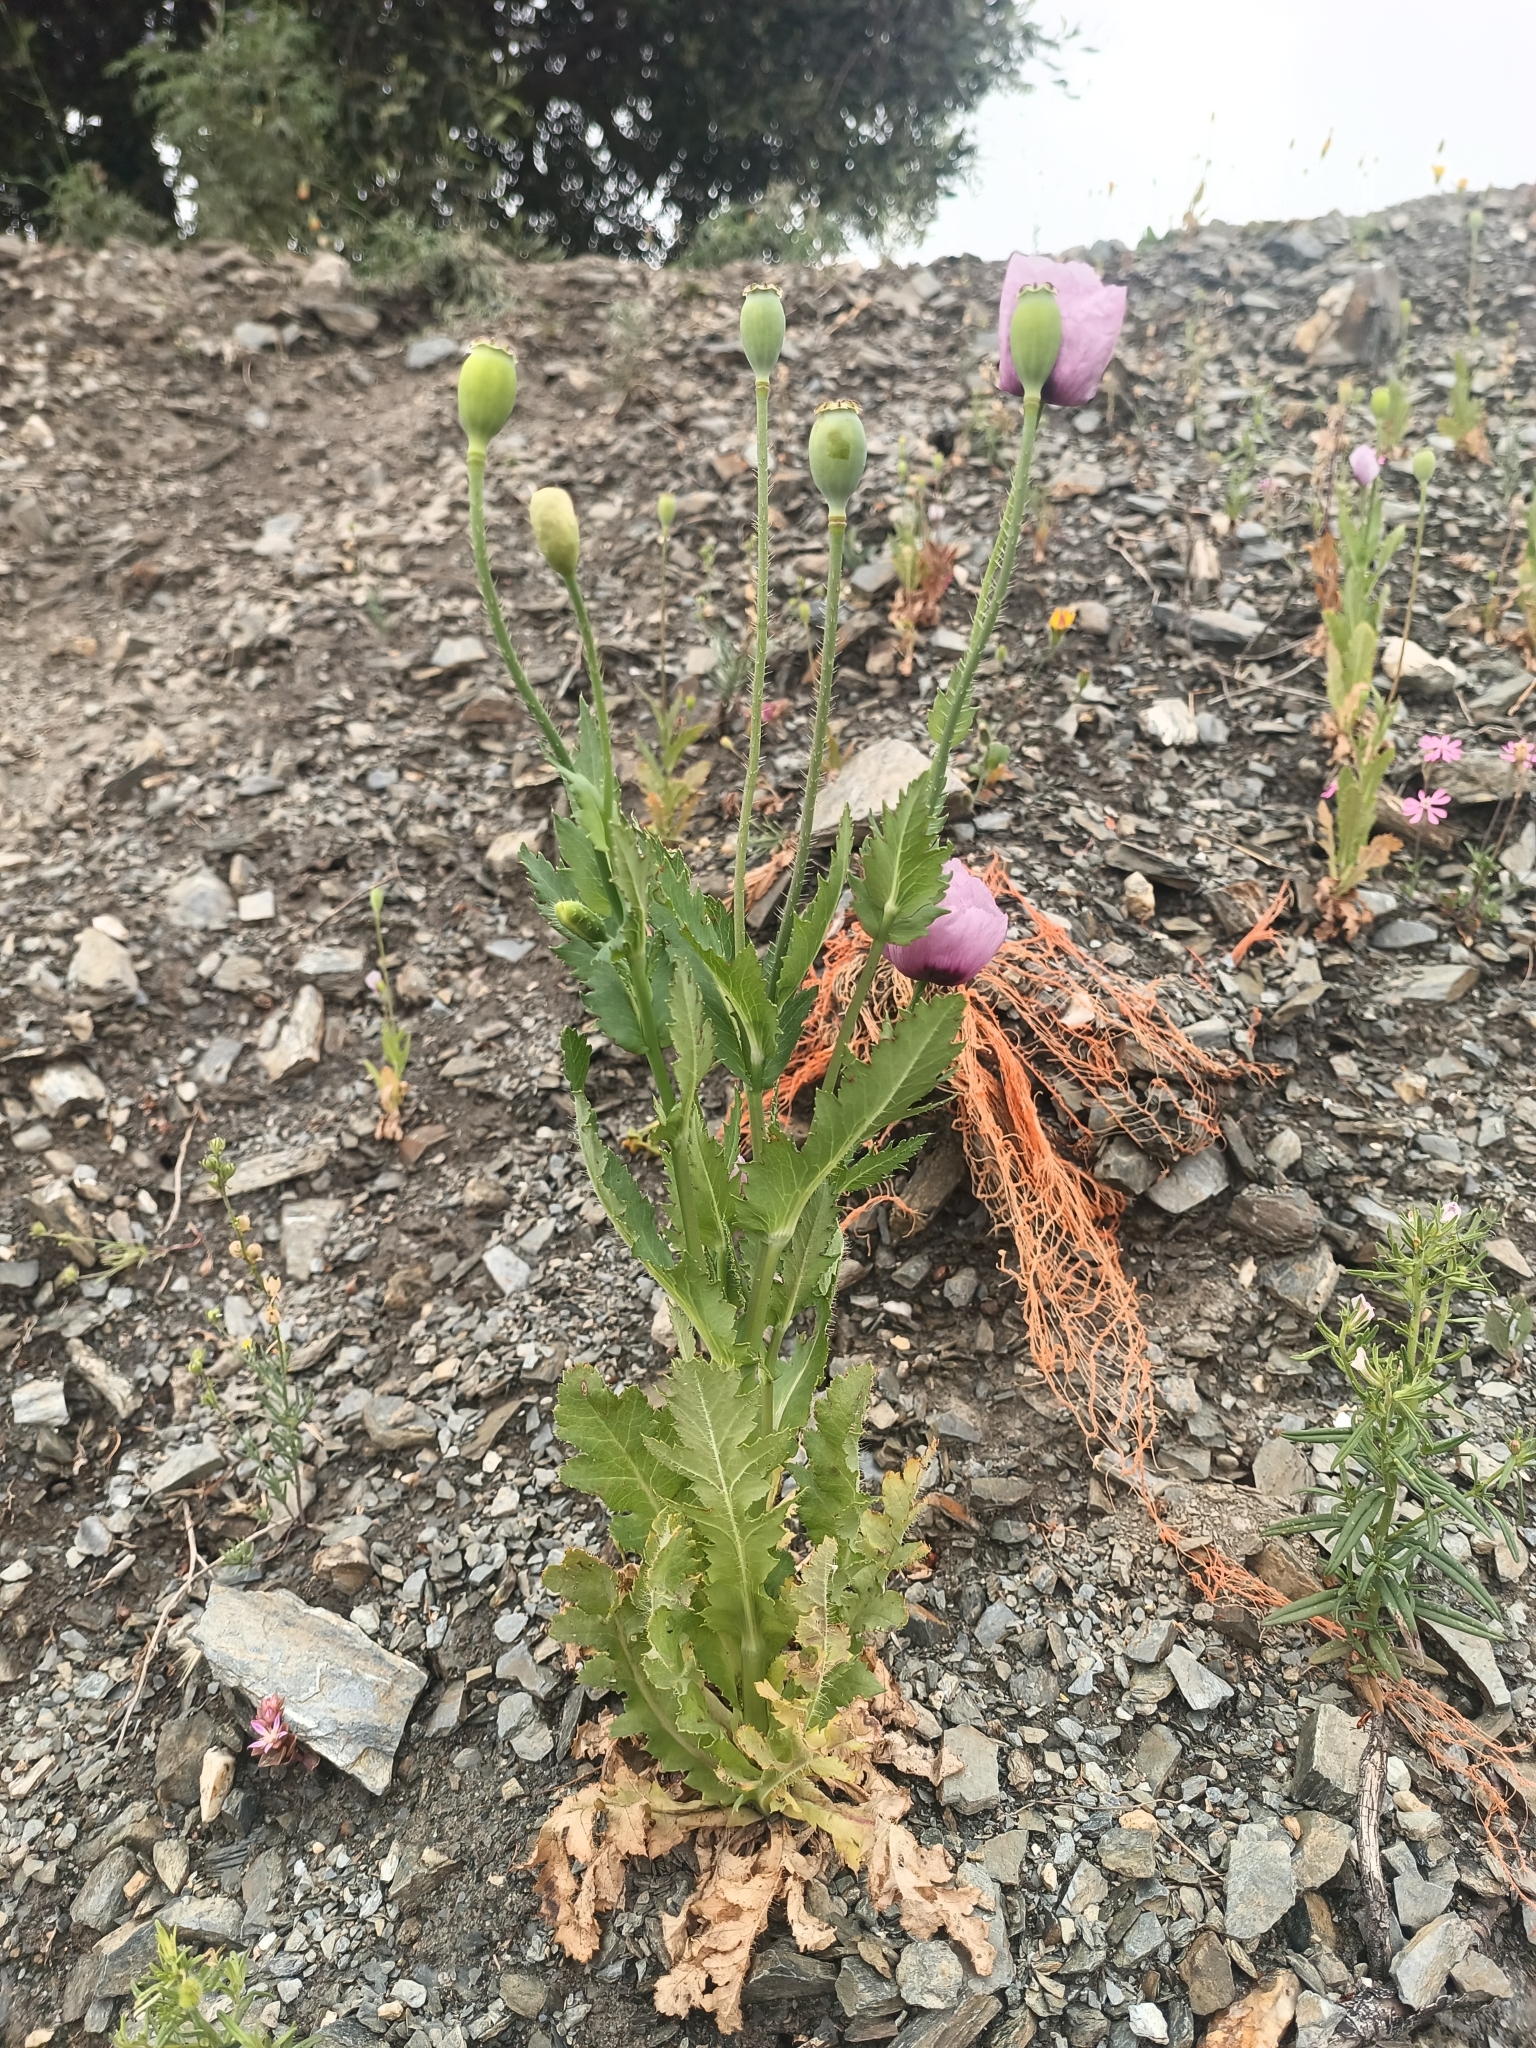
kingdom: Plantae
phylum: Tracheophyta
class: Magnoliopsida
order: Ranunculales
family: Papaveraceae
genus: Papaver
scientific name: Papaver setigerum
